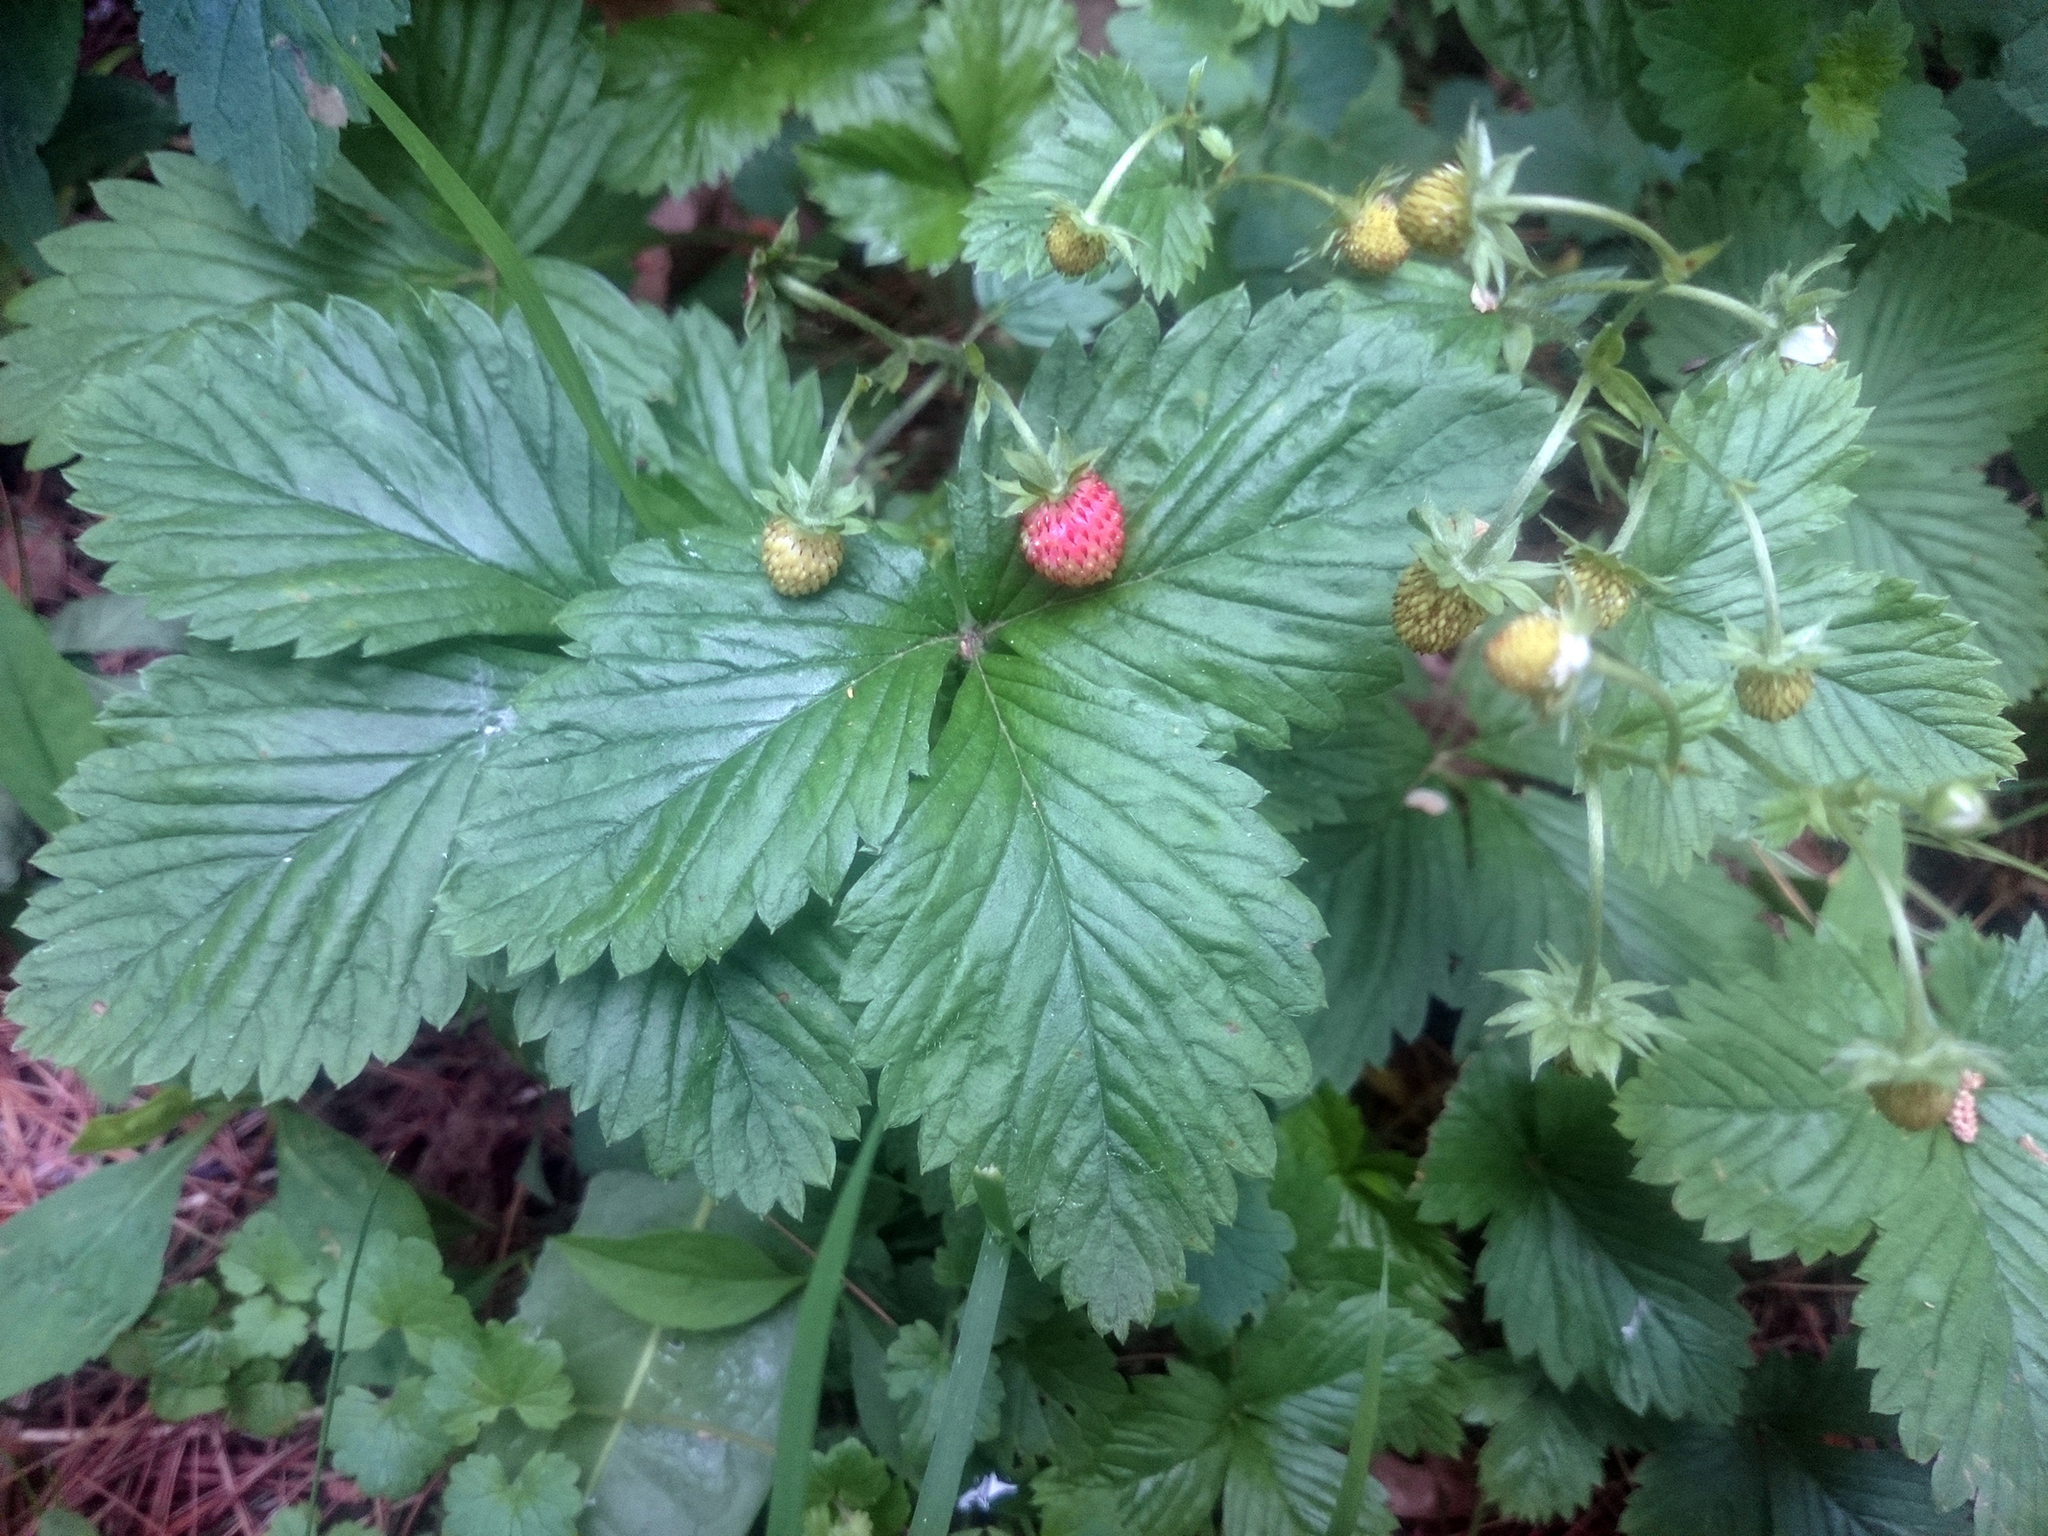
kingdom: Plantae
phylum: Tracheophyta
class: Magnoliopsida
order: Rosales
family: Rosaceae
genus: Fragaria
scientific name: Fragaria vesca
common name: Wild strawberry
